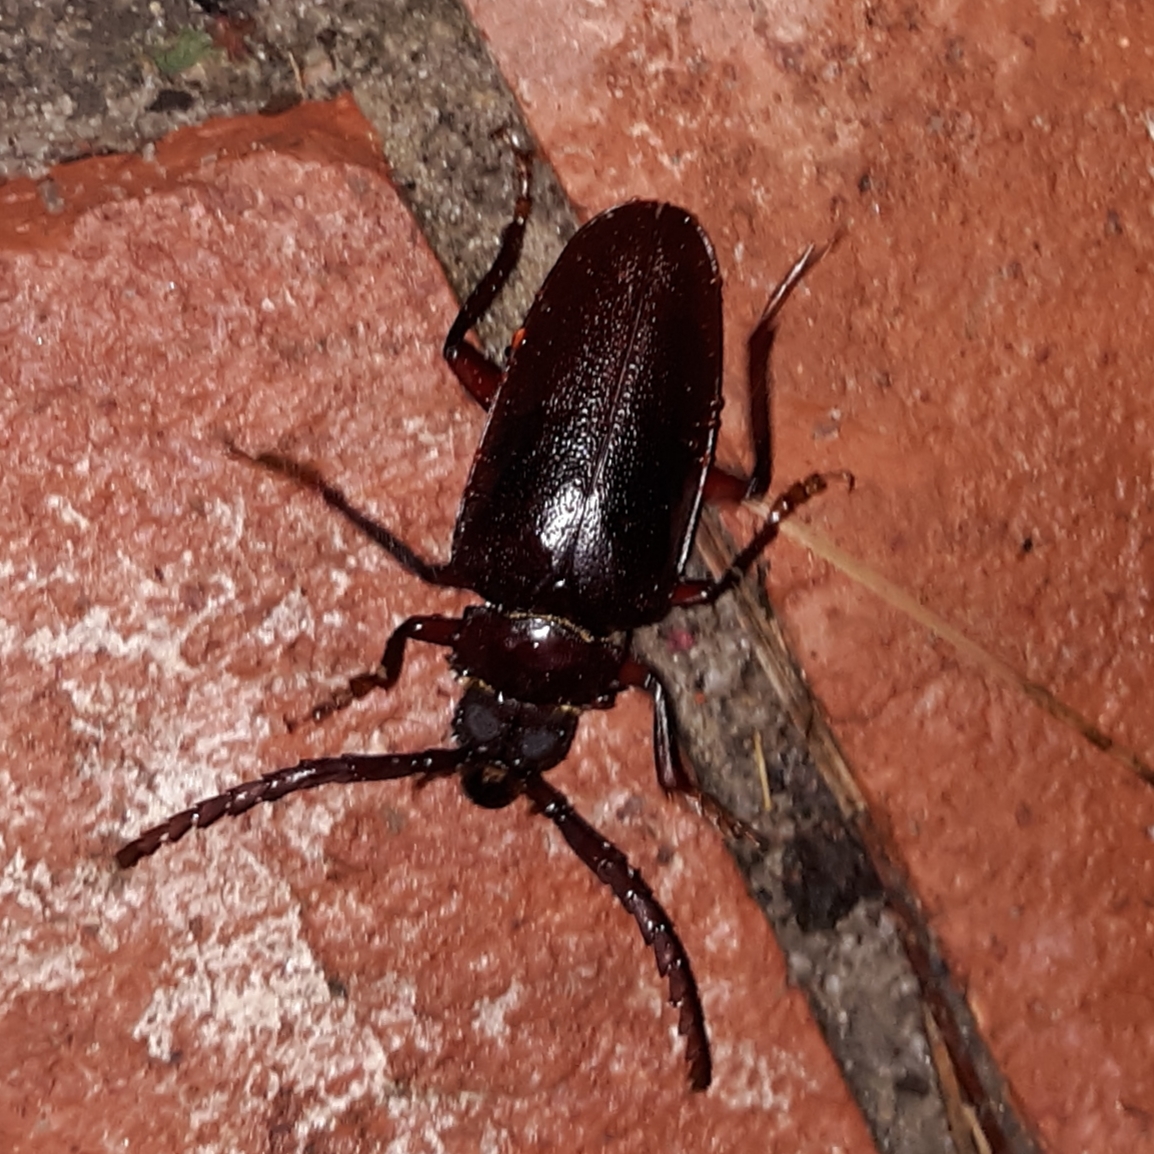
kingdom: Animalia
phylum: Arthropoda
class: Insecta
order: Coleoptera
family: Cerambycidae
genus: Prionus
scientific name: Prionus pocularis
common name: Tooth-necked longhorn beetle
